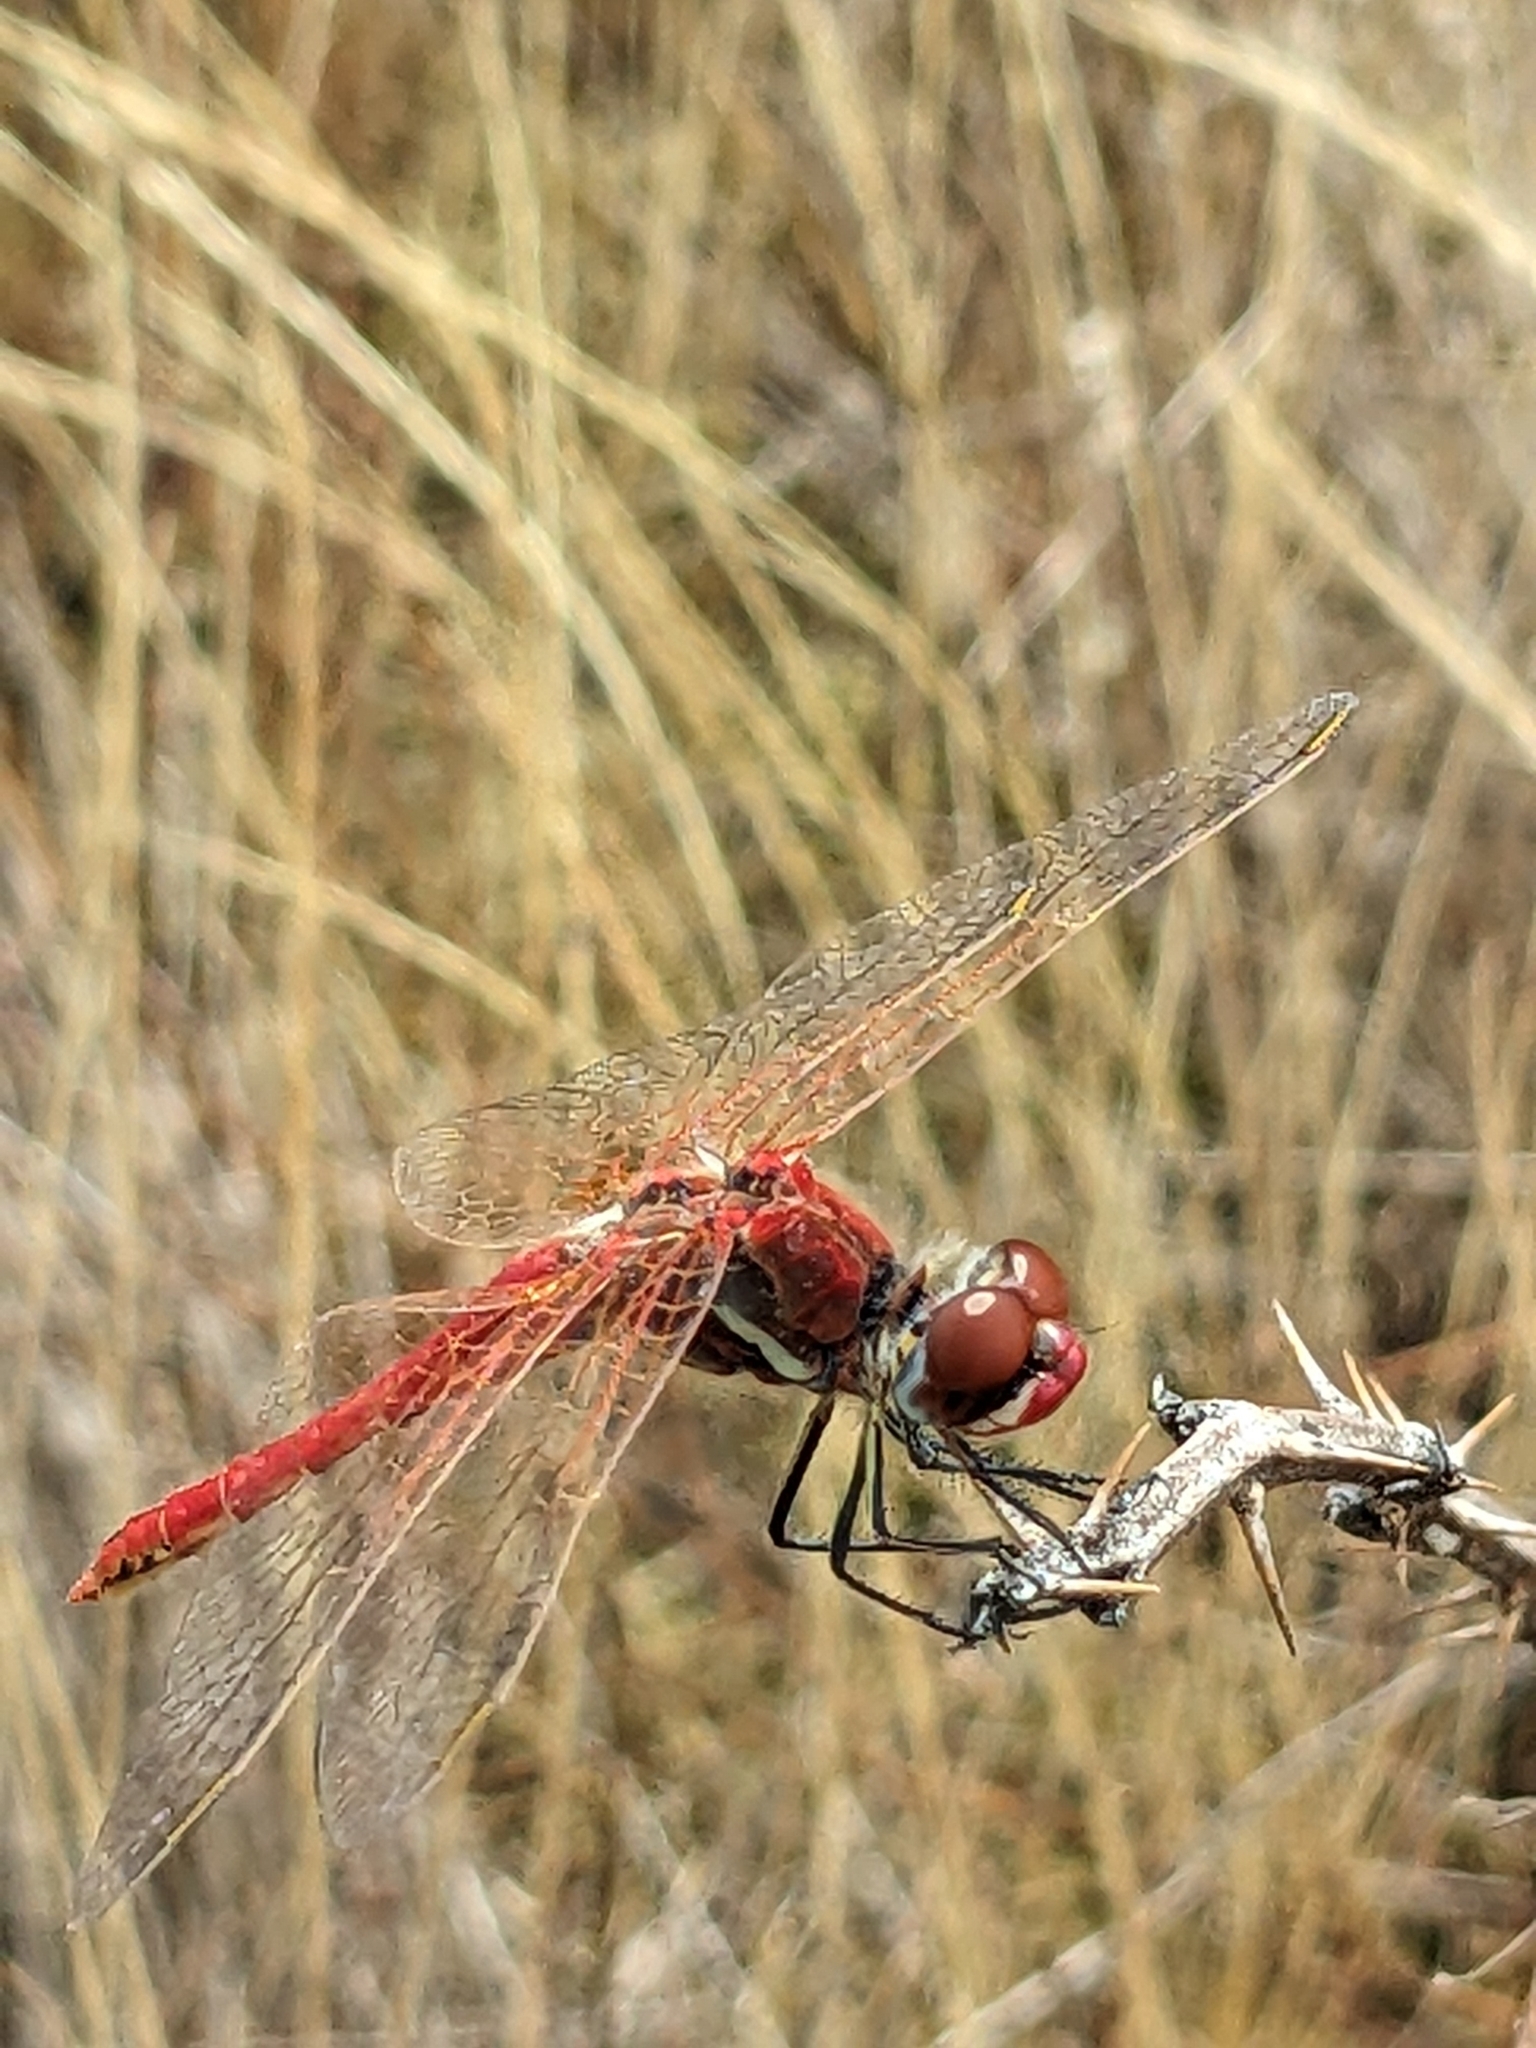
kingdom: Animalia
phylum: Arthropoda
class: Insecta
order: Odonata
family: Libellulidae
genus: Sympetrum
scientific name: Sympetrum fonscolombii
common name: Red-veined darter
